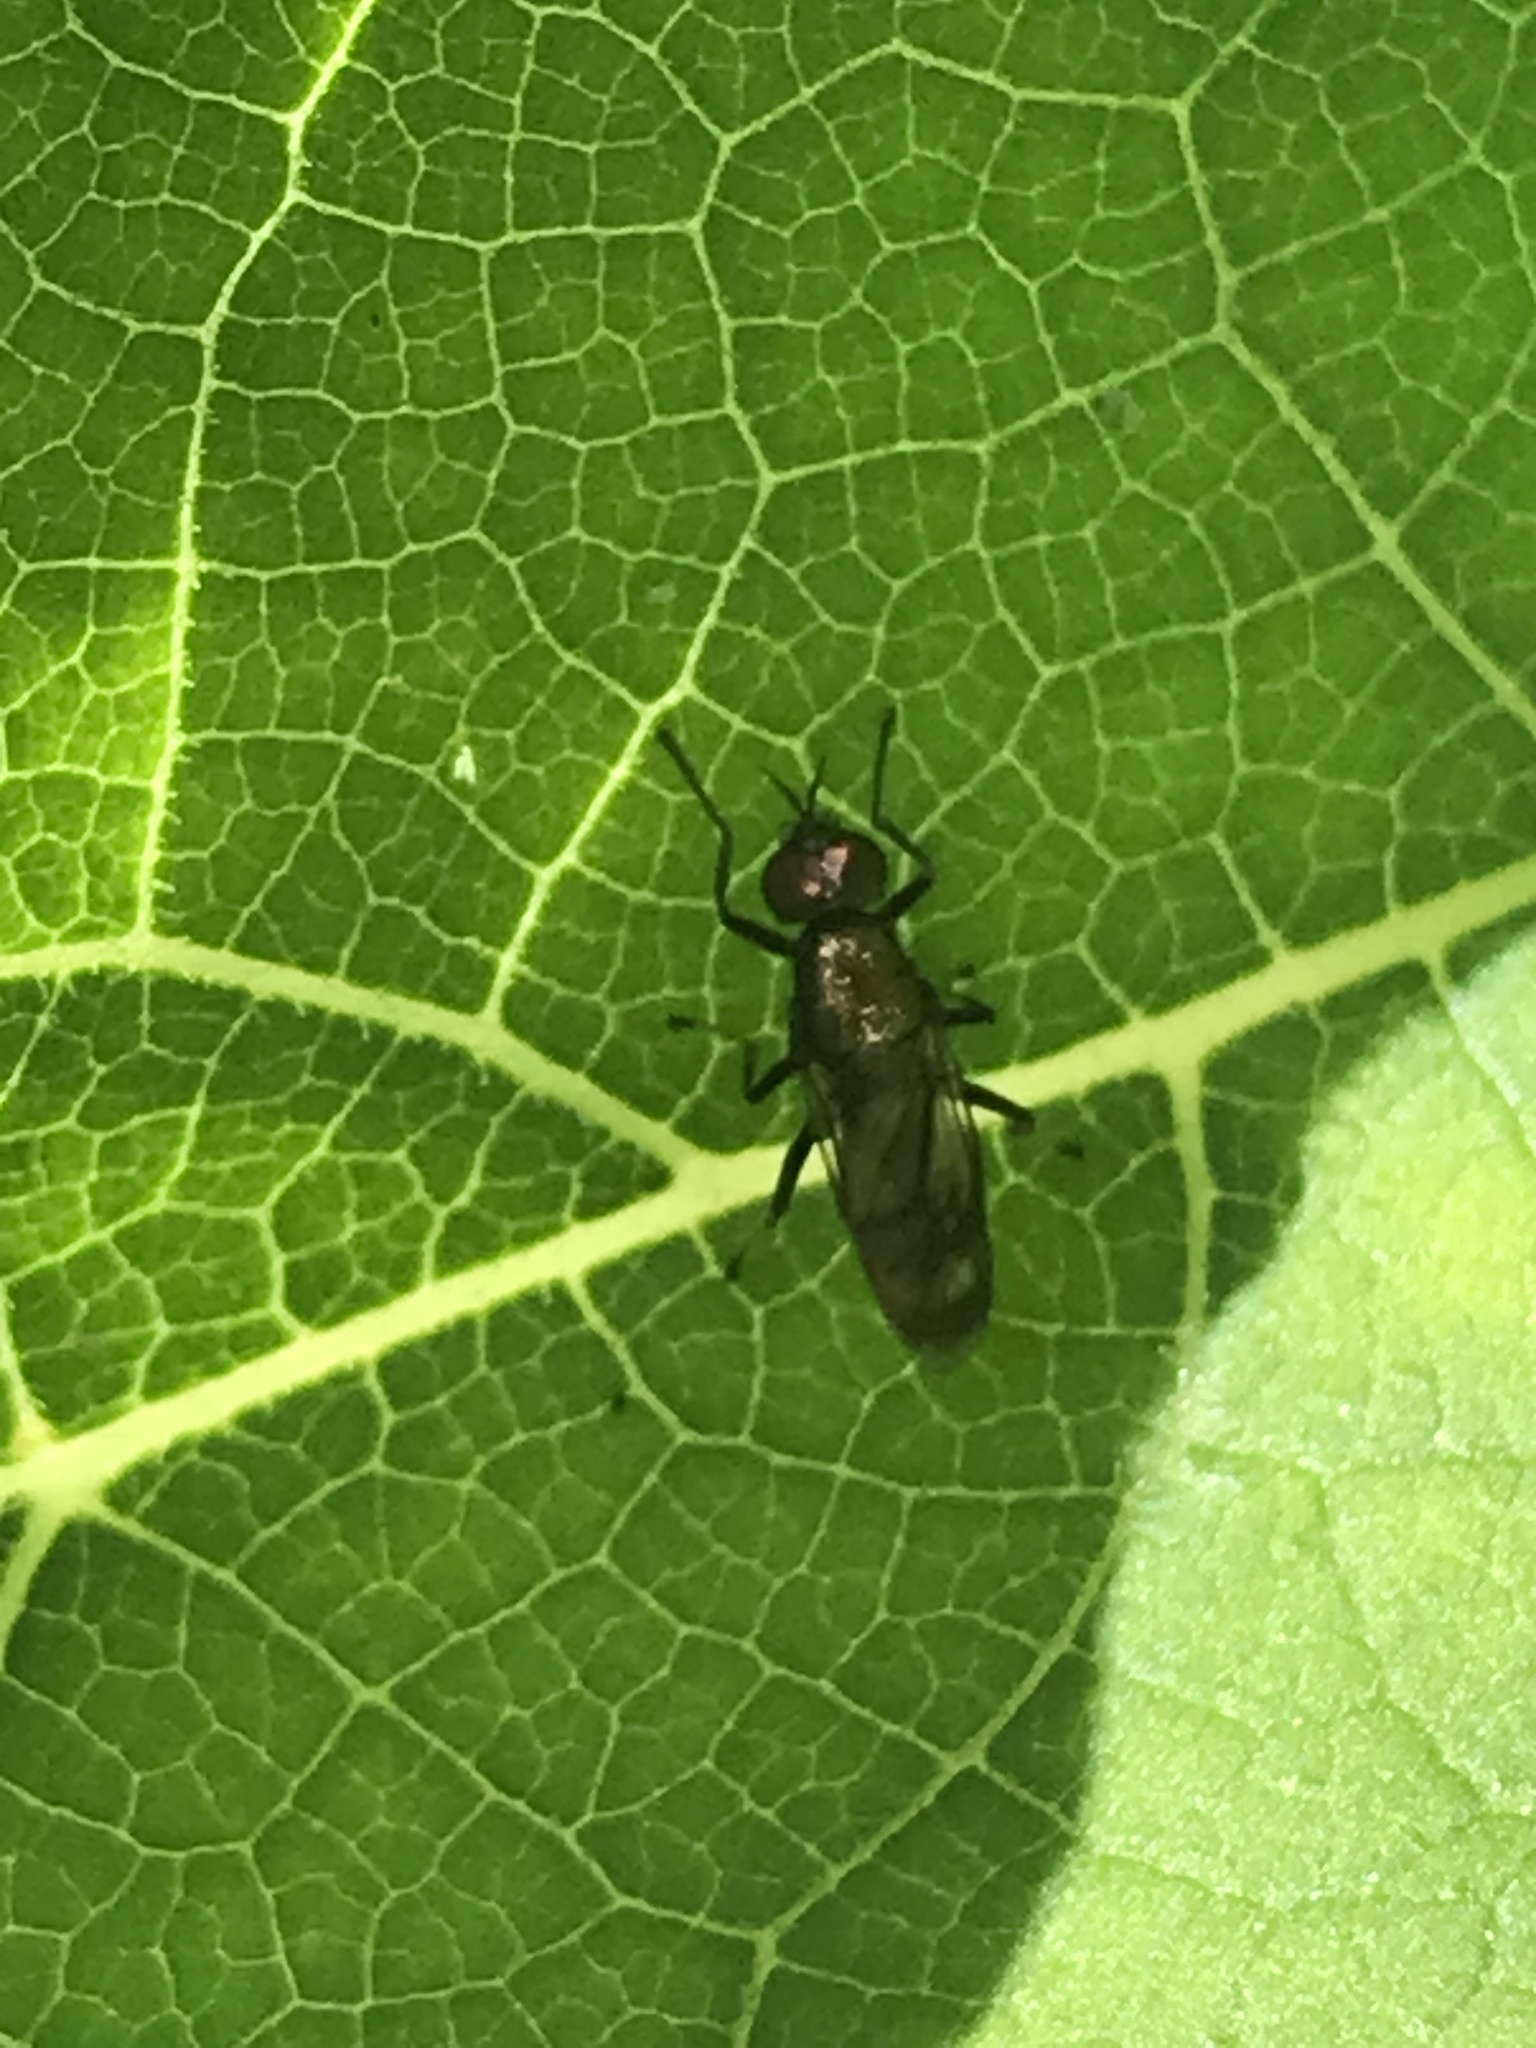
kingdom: Animalia
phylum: Arthropoda
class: Insecta
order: Diptera
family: Stratiomyidae
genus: Myxosargus
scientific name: Myxosargus nigricormis
